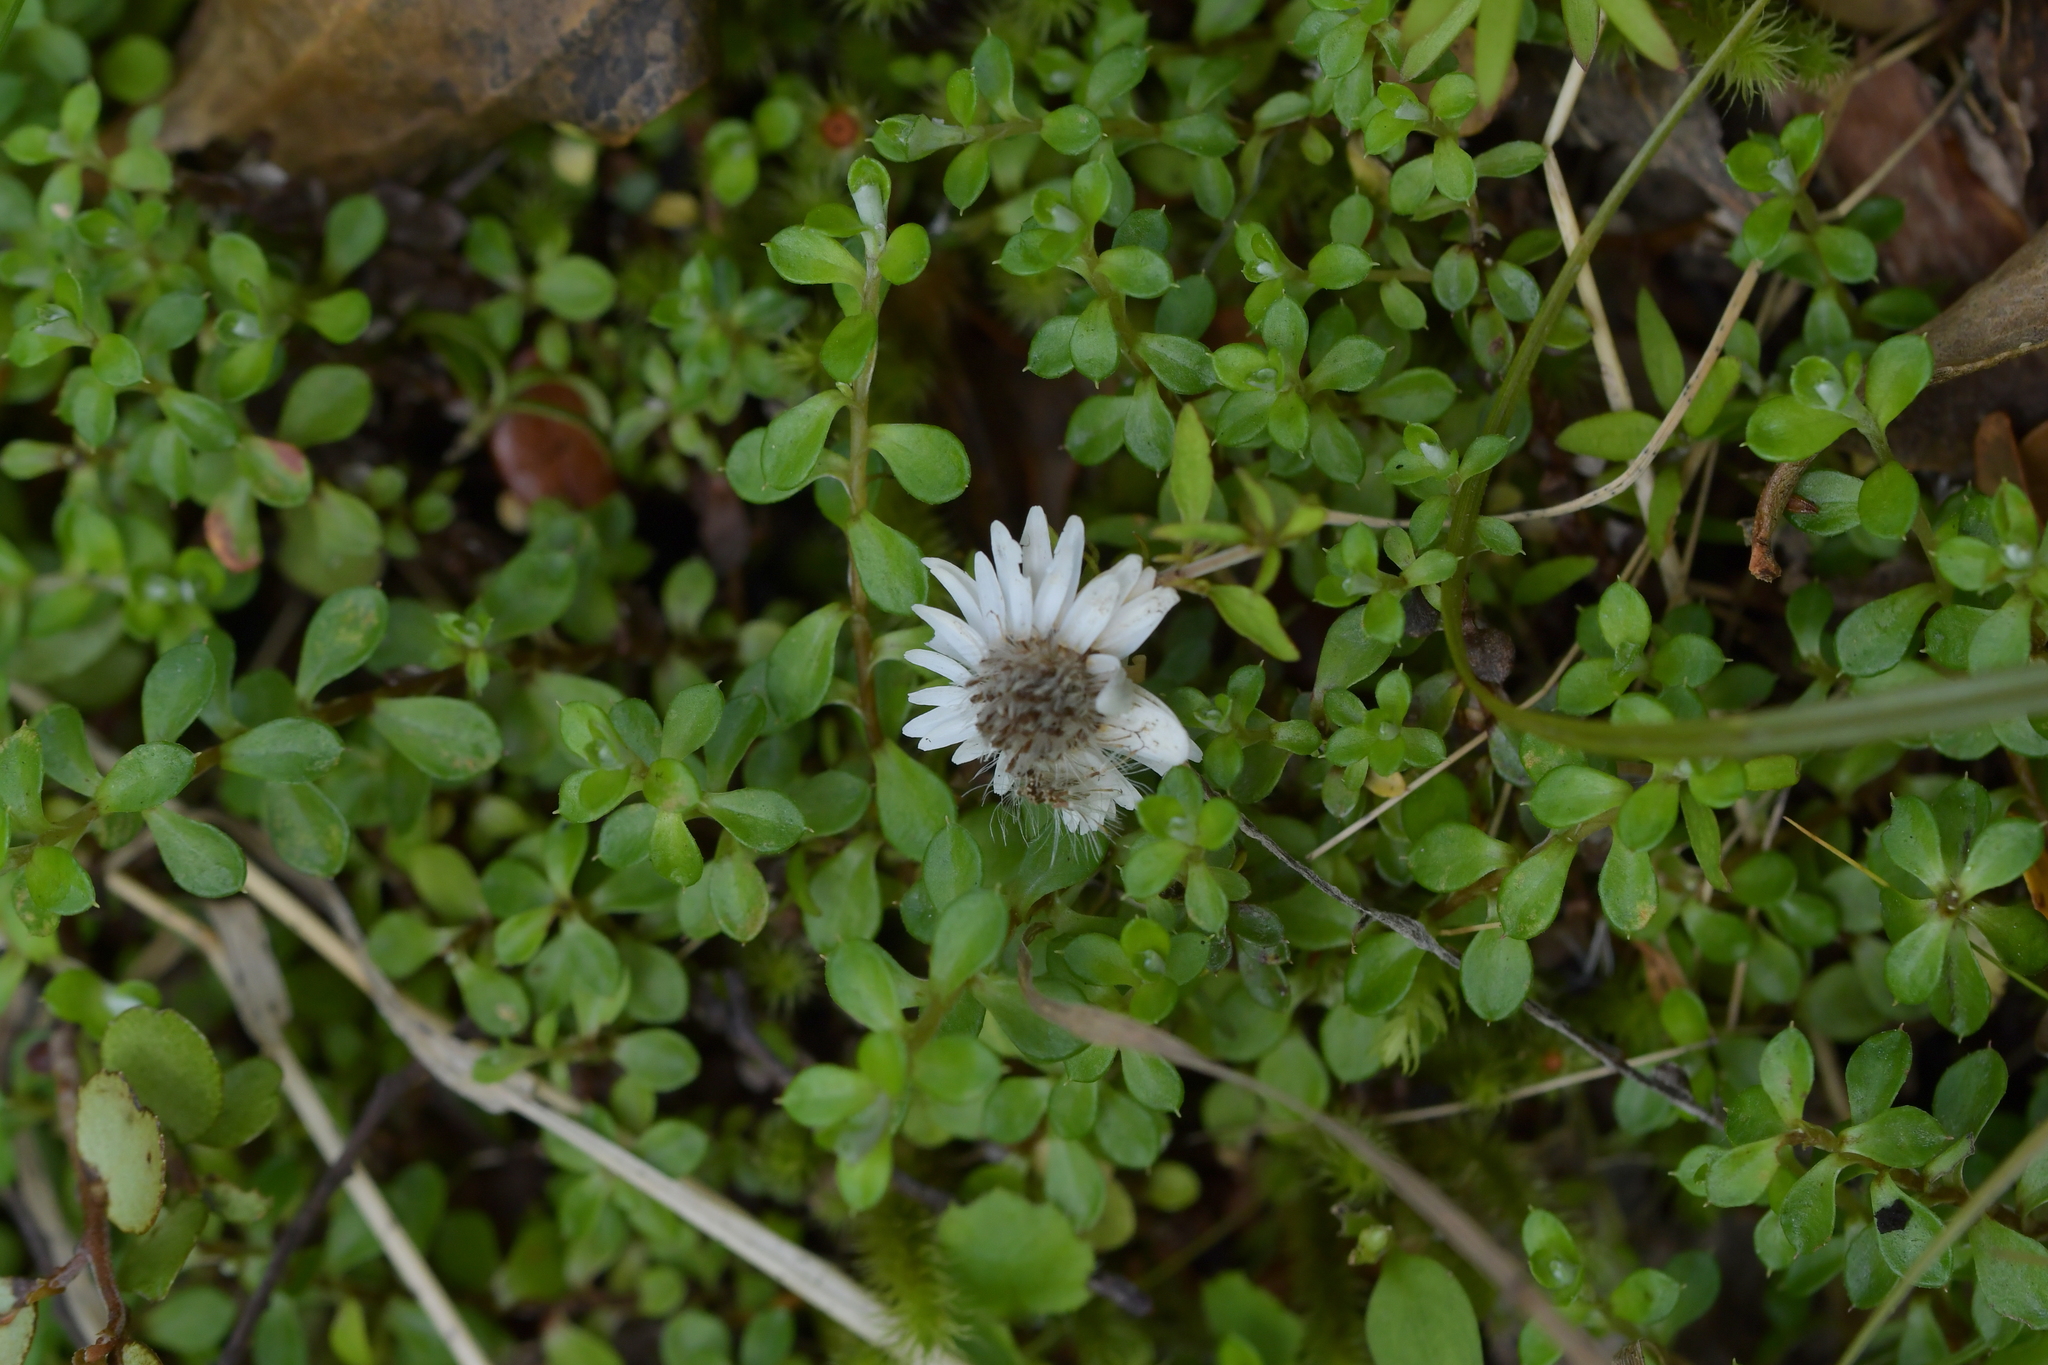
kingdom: Plantae
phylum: Tracheophyta
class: Magnoliopsida
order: Asterales
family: Asteraceae
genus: Anaphalioides
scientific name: Anaphalioides bellidioides
